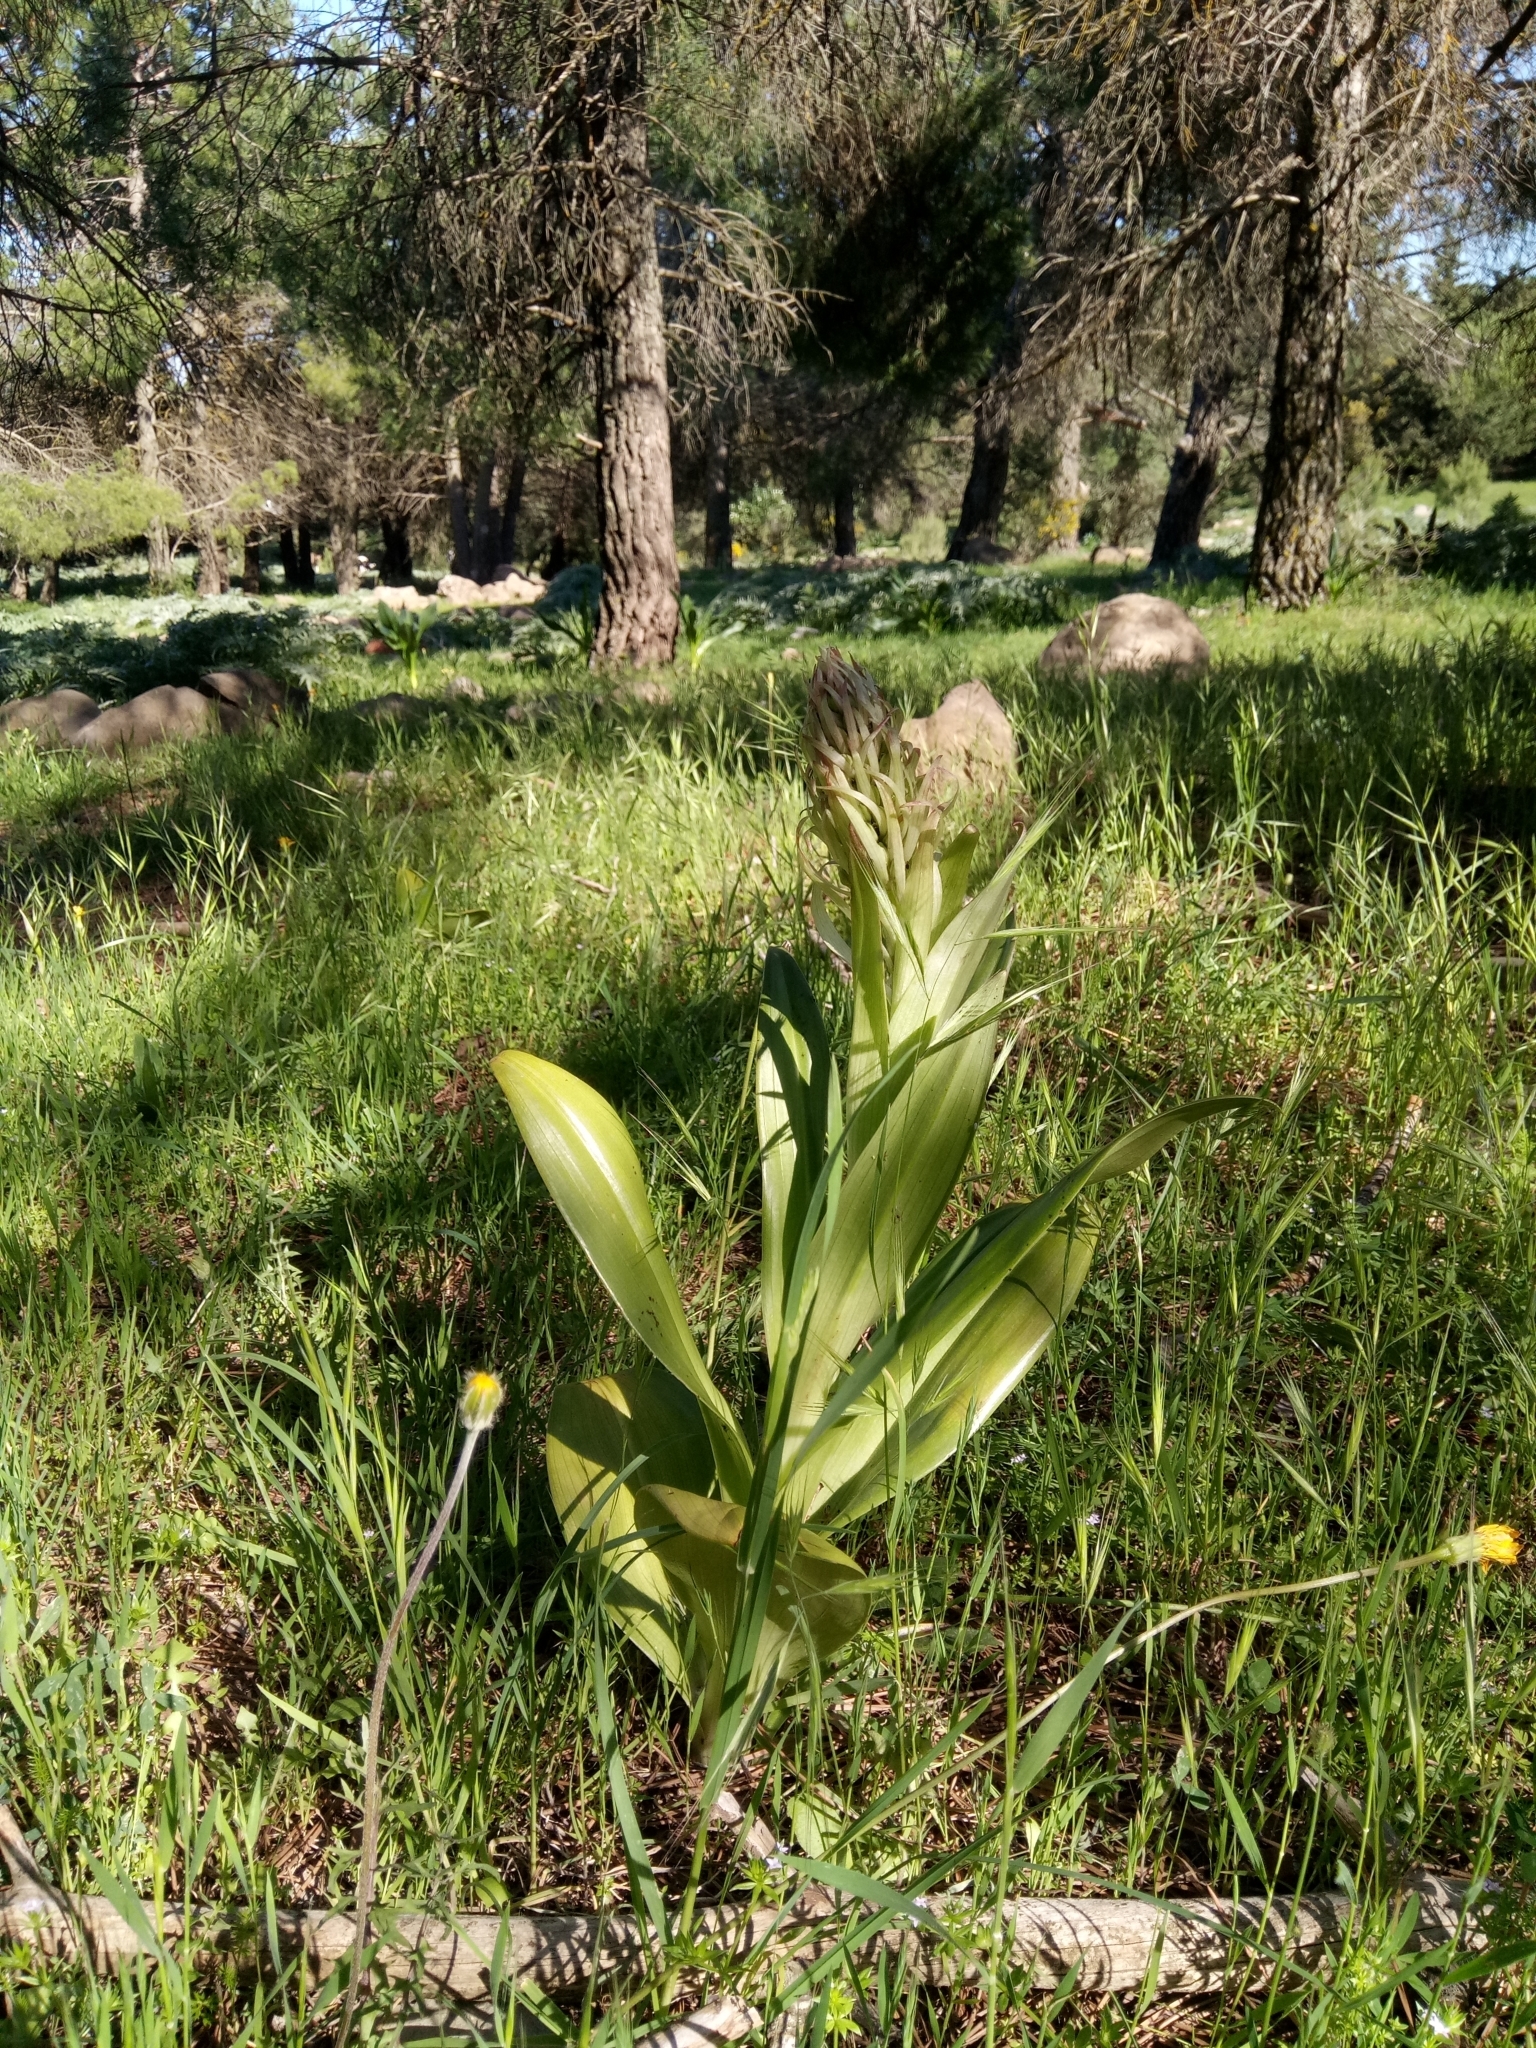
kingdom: Plantae
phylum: Tracheophyta
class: Liliopsida
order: Asparagales
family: Orchidaceae
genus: Himantoglossum
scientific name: Himantoglossum hircinum
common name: Lizard orchid
